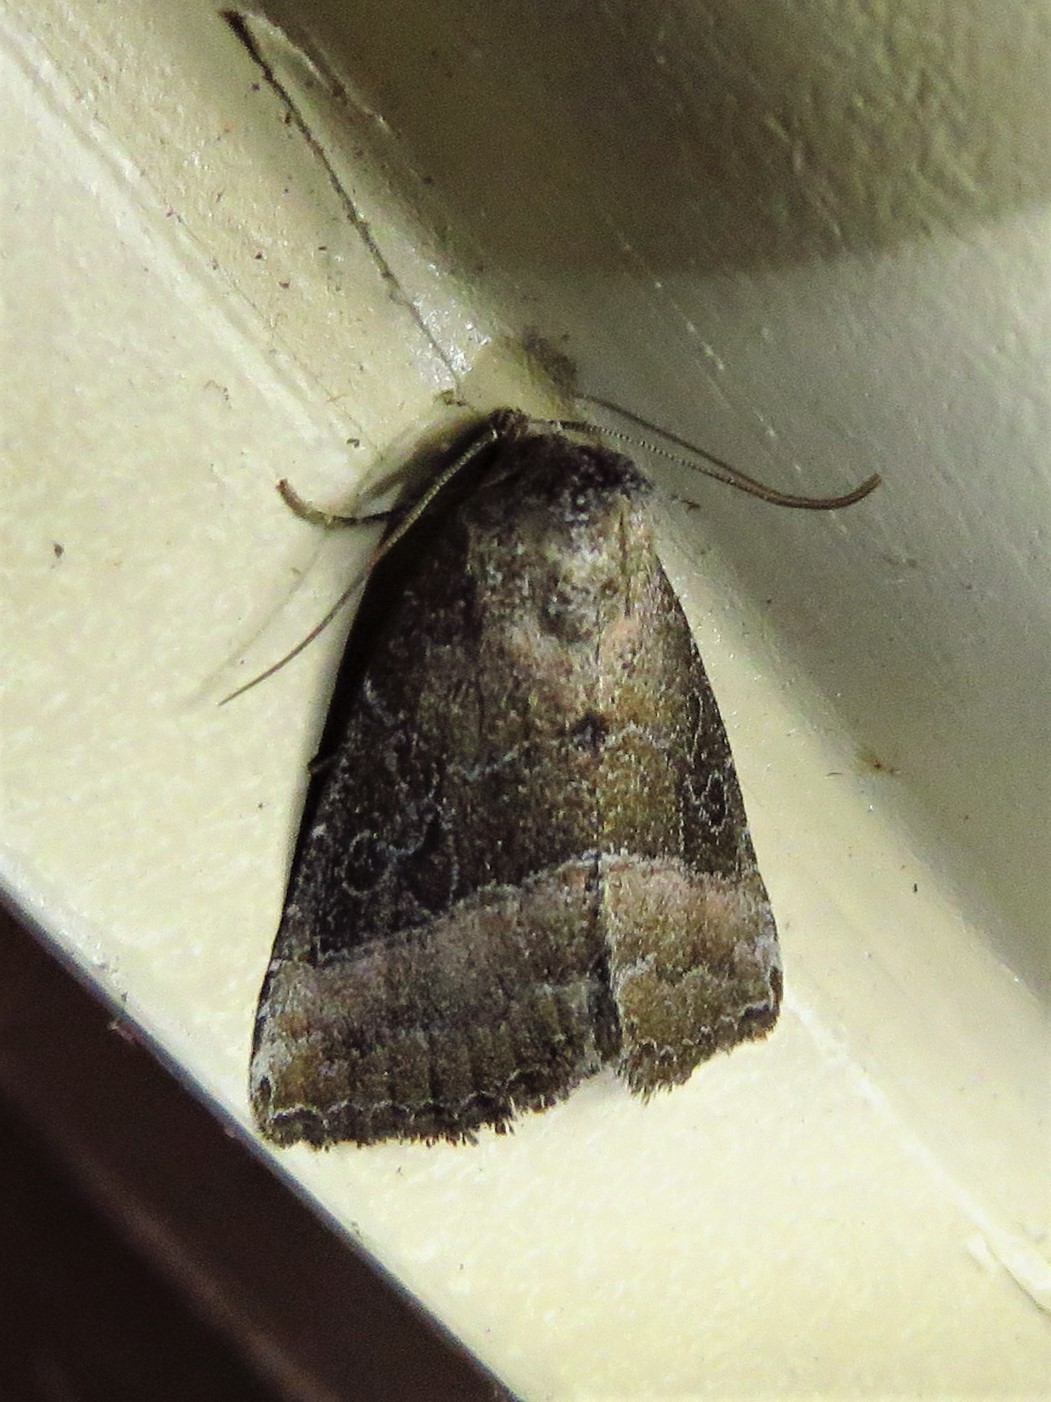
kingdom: Animalia
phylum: Arthropoda
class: Insecta
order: Lepidoptera
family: Noctuidae
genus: Ogdoconta
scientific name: Ogdoconta cinereola
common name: Common pinkband
